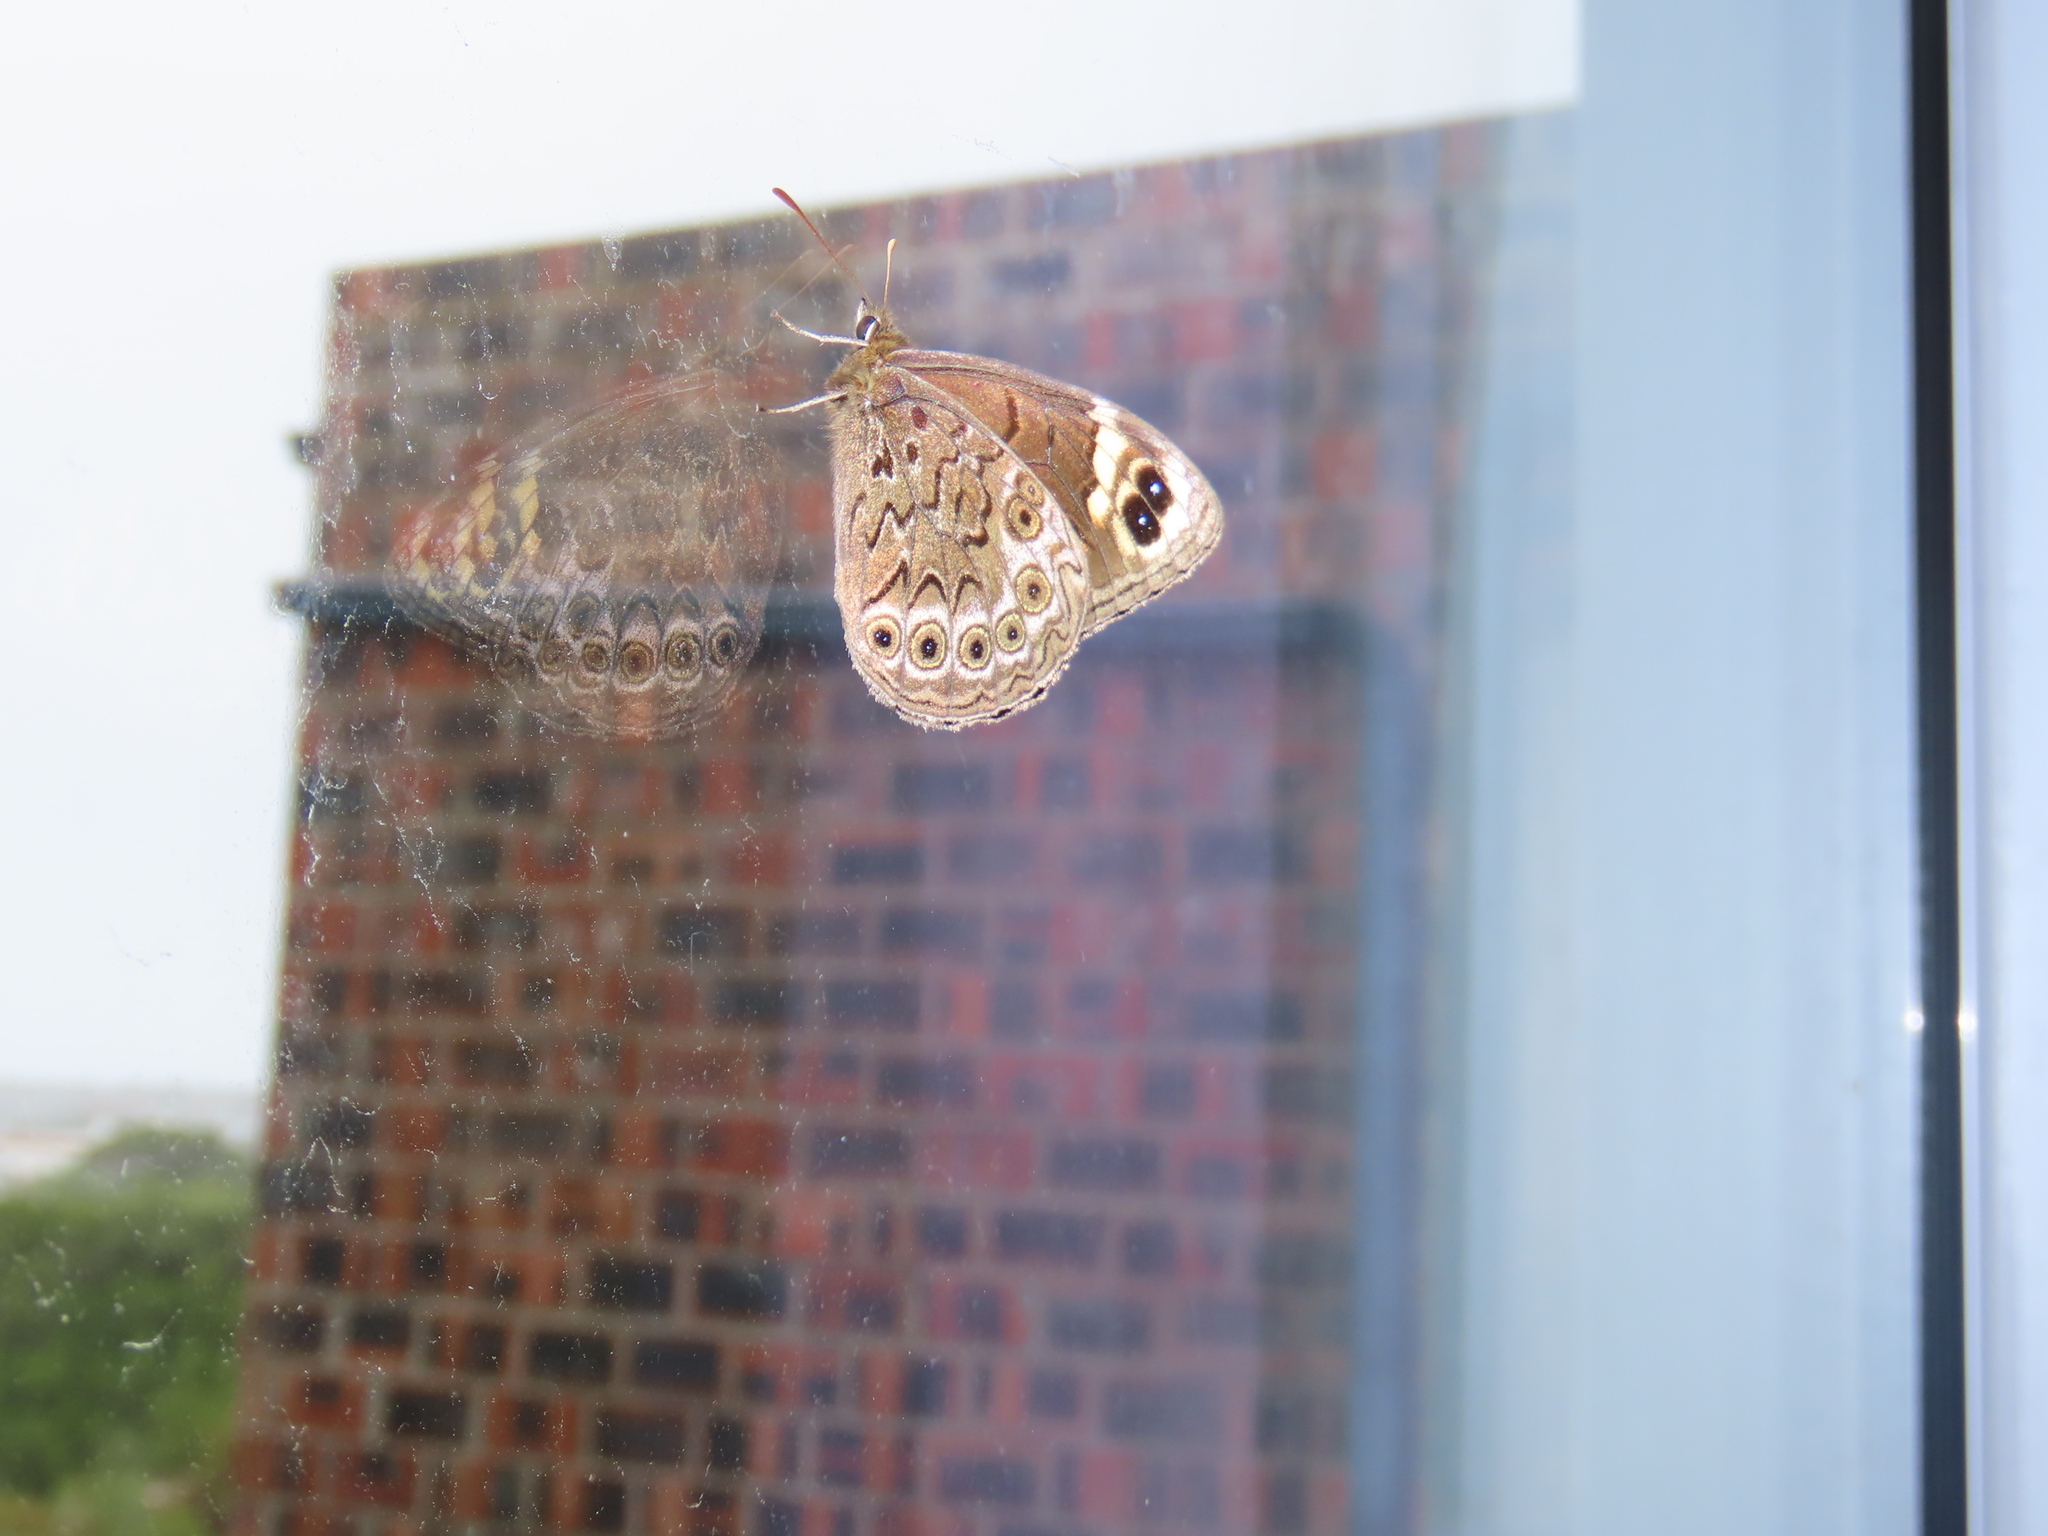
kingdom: Animalia
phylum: Arthropoda
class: Insecta
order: Lepidoptera
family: Nymphalidae
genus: Dira
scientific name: Dira clytus
